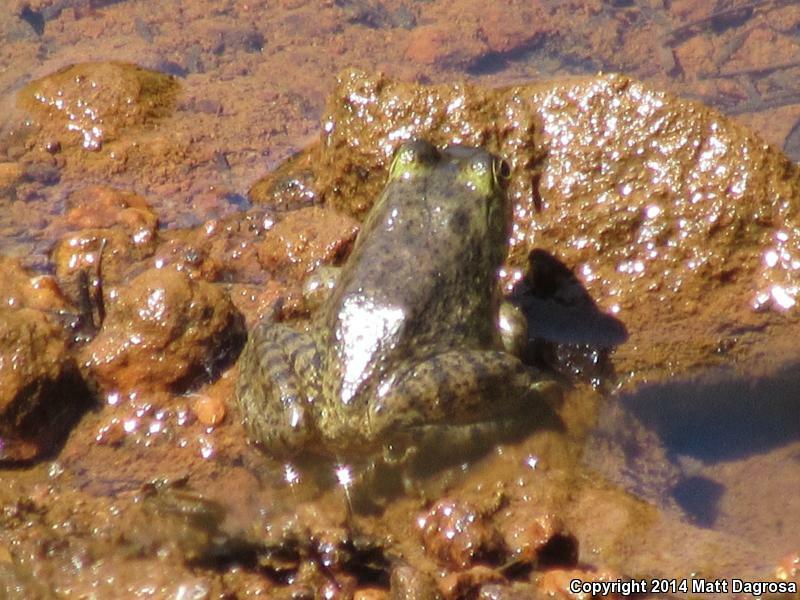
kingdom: Animalia
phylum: Chordata
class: Amphibia
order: Anura
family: Ranidae
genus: Lithobates
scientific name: Lithobates catesbeianus
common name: American bullfrog
